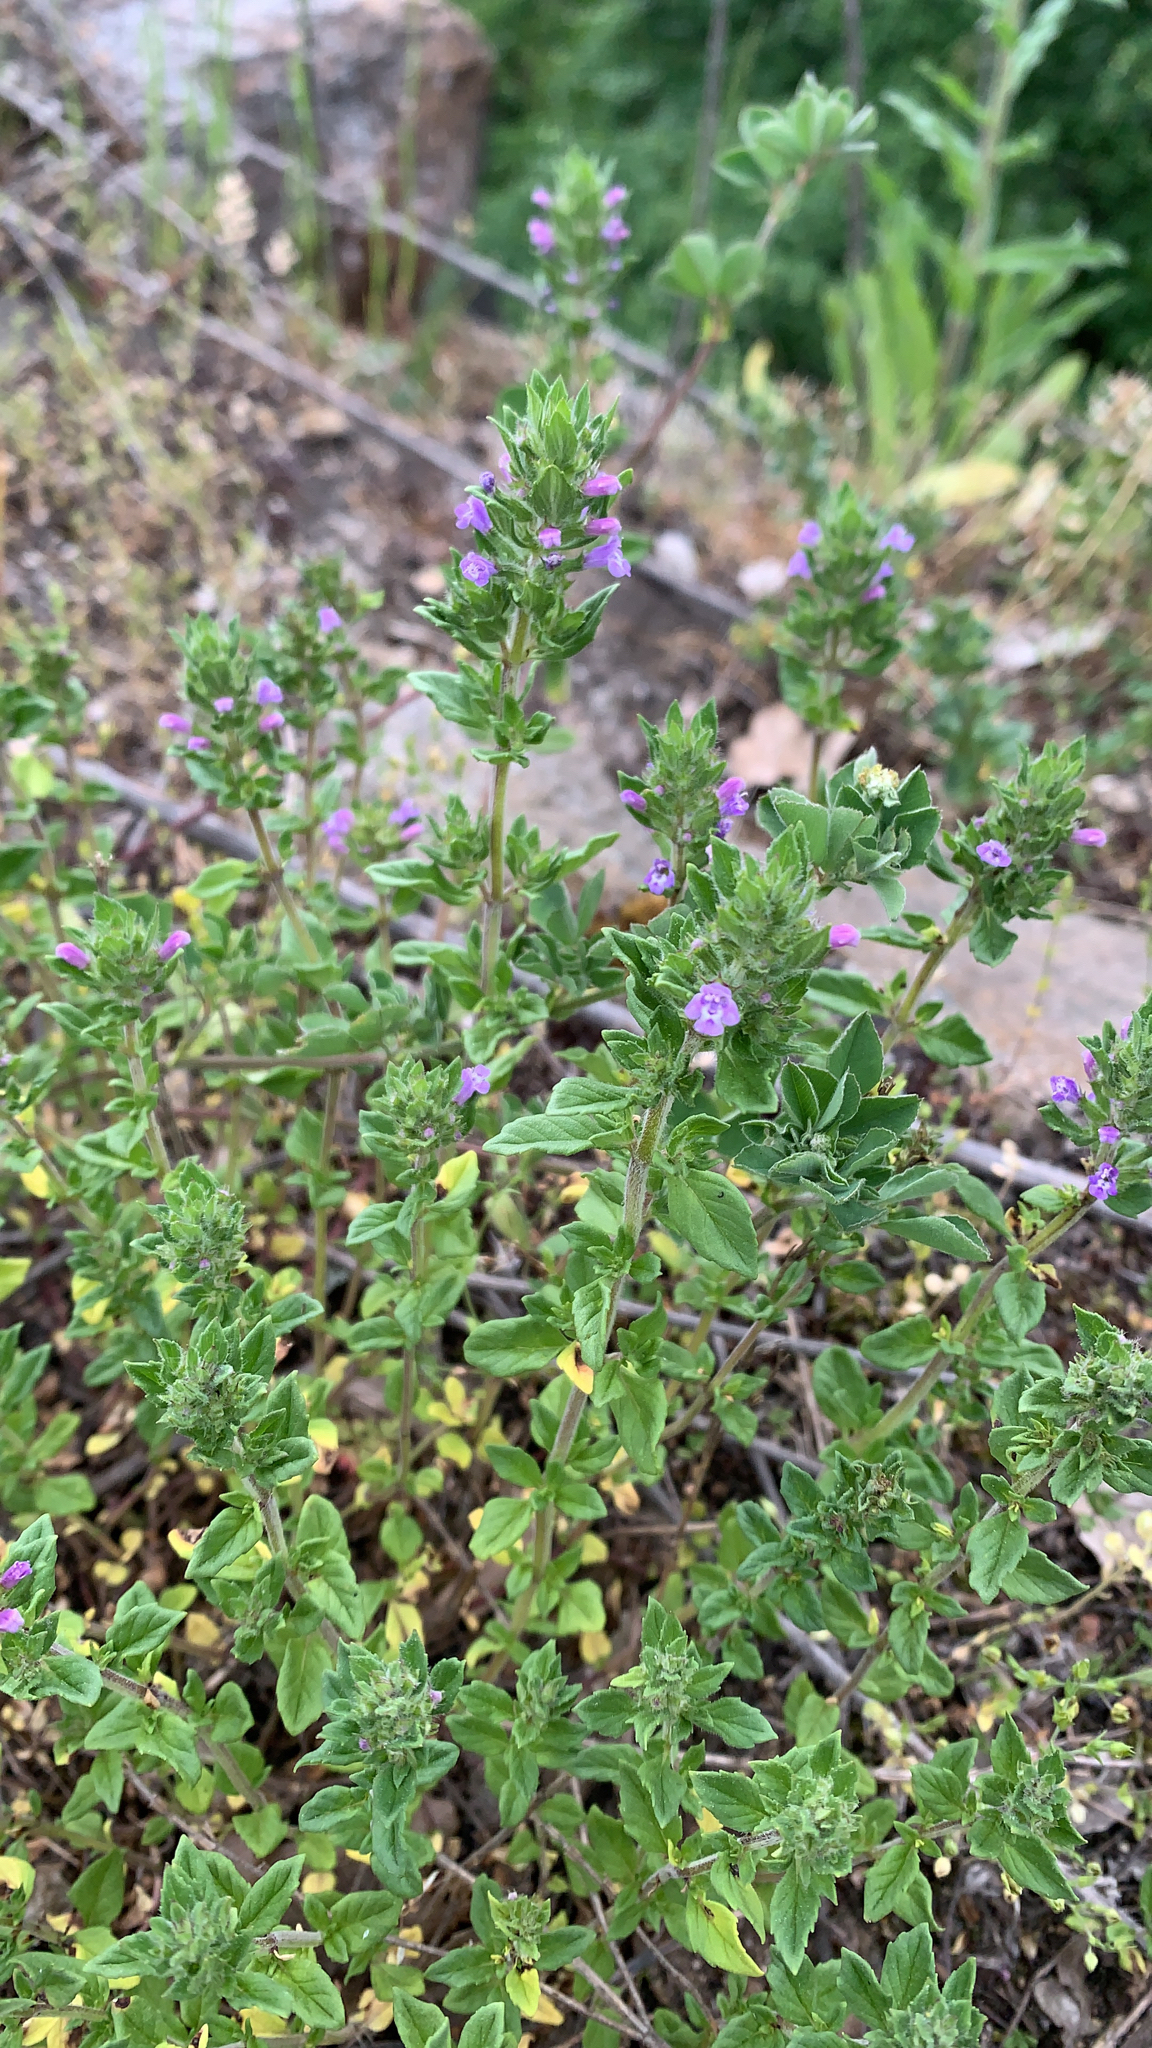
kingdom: Plantae
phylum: Tracheophyta
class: Magnoliopsida
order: Lamiales
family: Lamiaceae
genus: Clinopodium
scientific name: Clinopodium acinos
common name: Basil thyme
